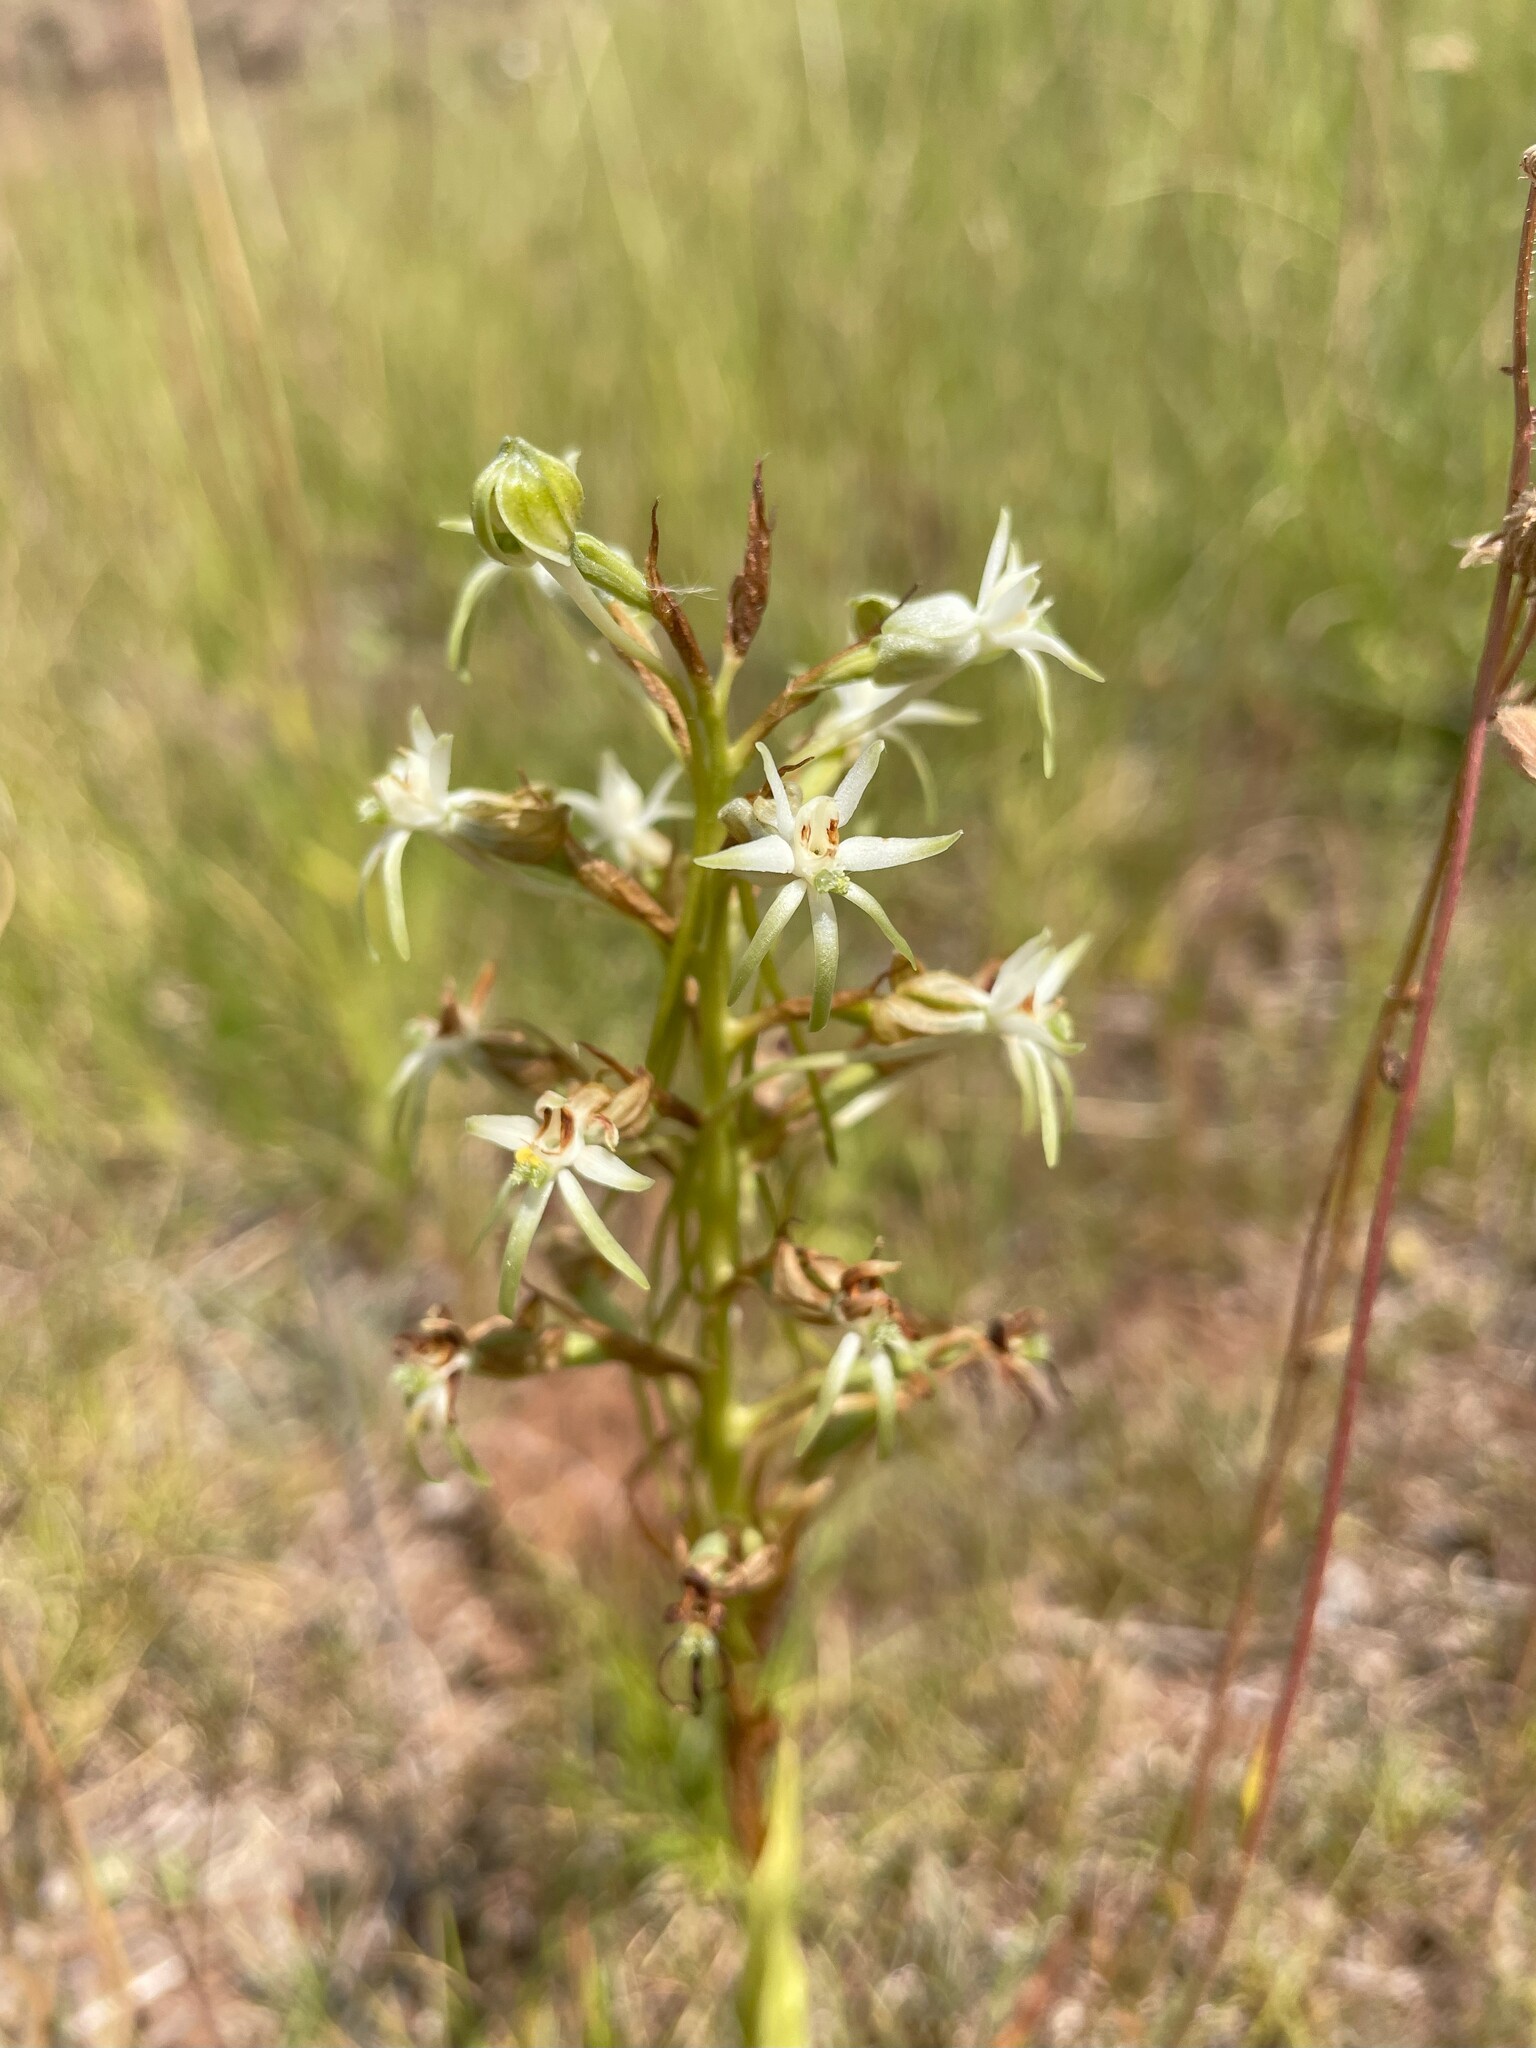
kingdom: Plantae
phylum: Tracheophyta
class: Liliopsida
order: Asparagales
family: Orchidaceae
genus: Habenaria
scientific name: Habenaria falcicornis
